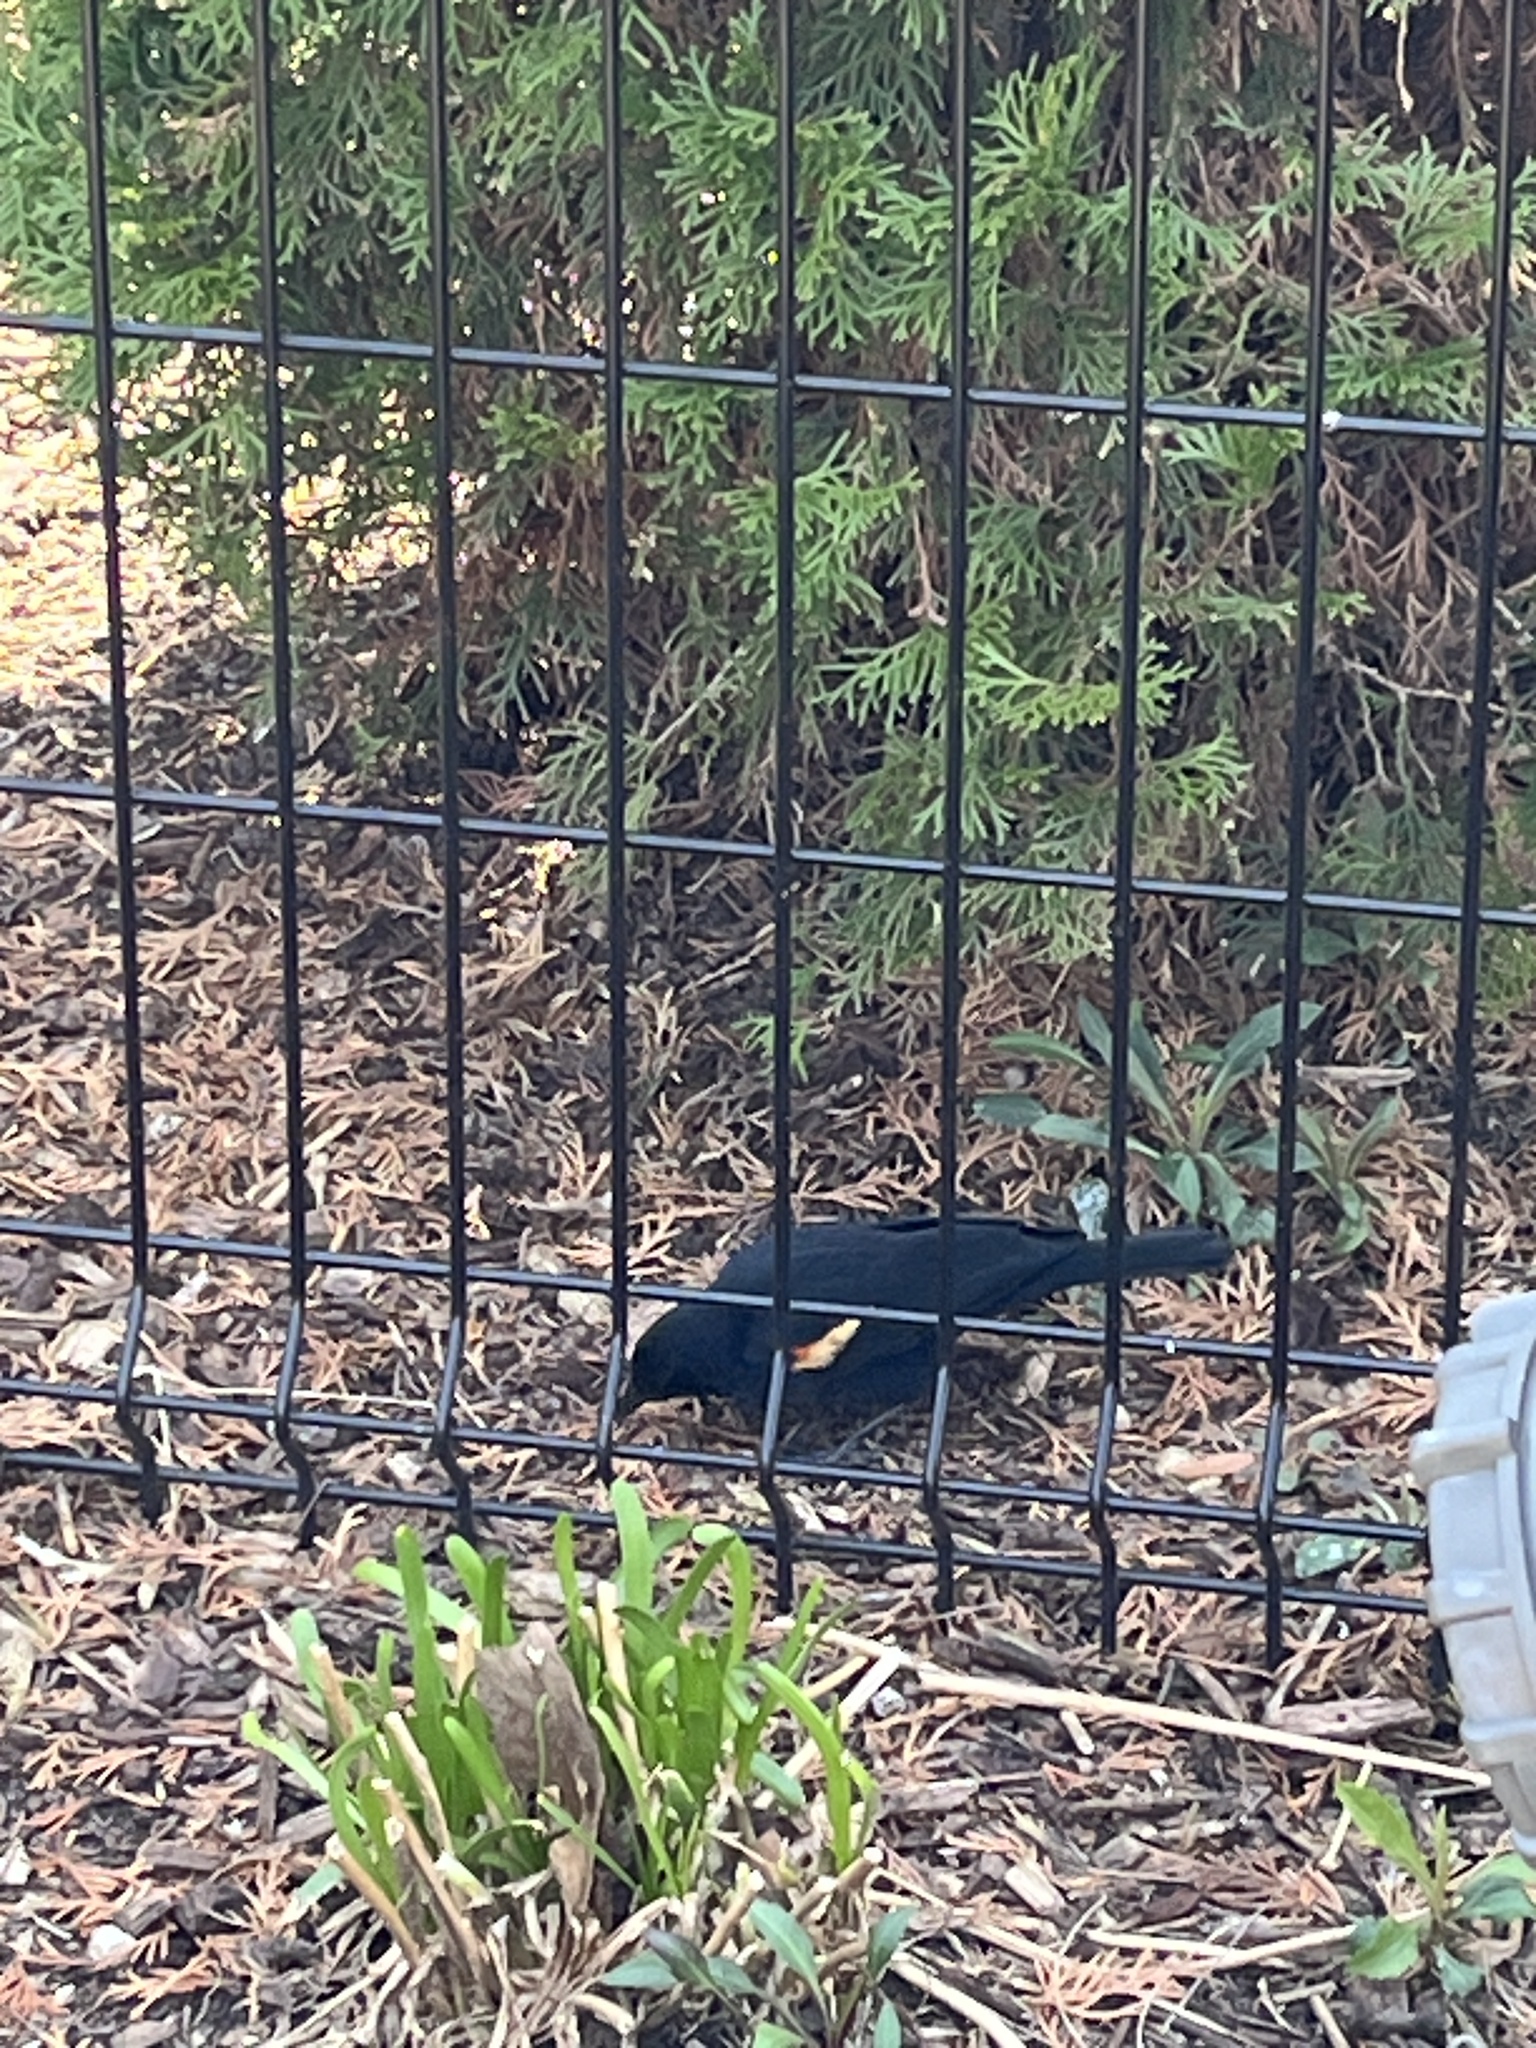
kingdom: Animalia
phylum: Chordata
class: Aves
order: Passeriformes
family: Icteridae
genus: Agelaius
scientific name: Agelaius phoeniceus
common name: Red-winged blackbird
